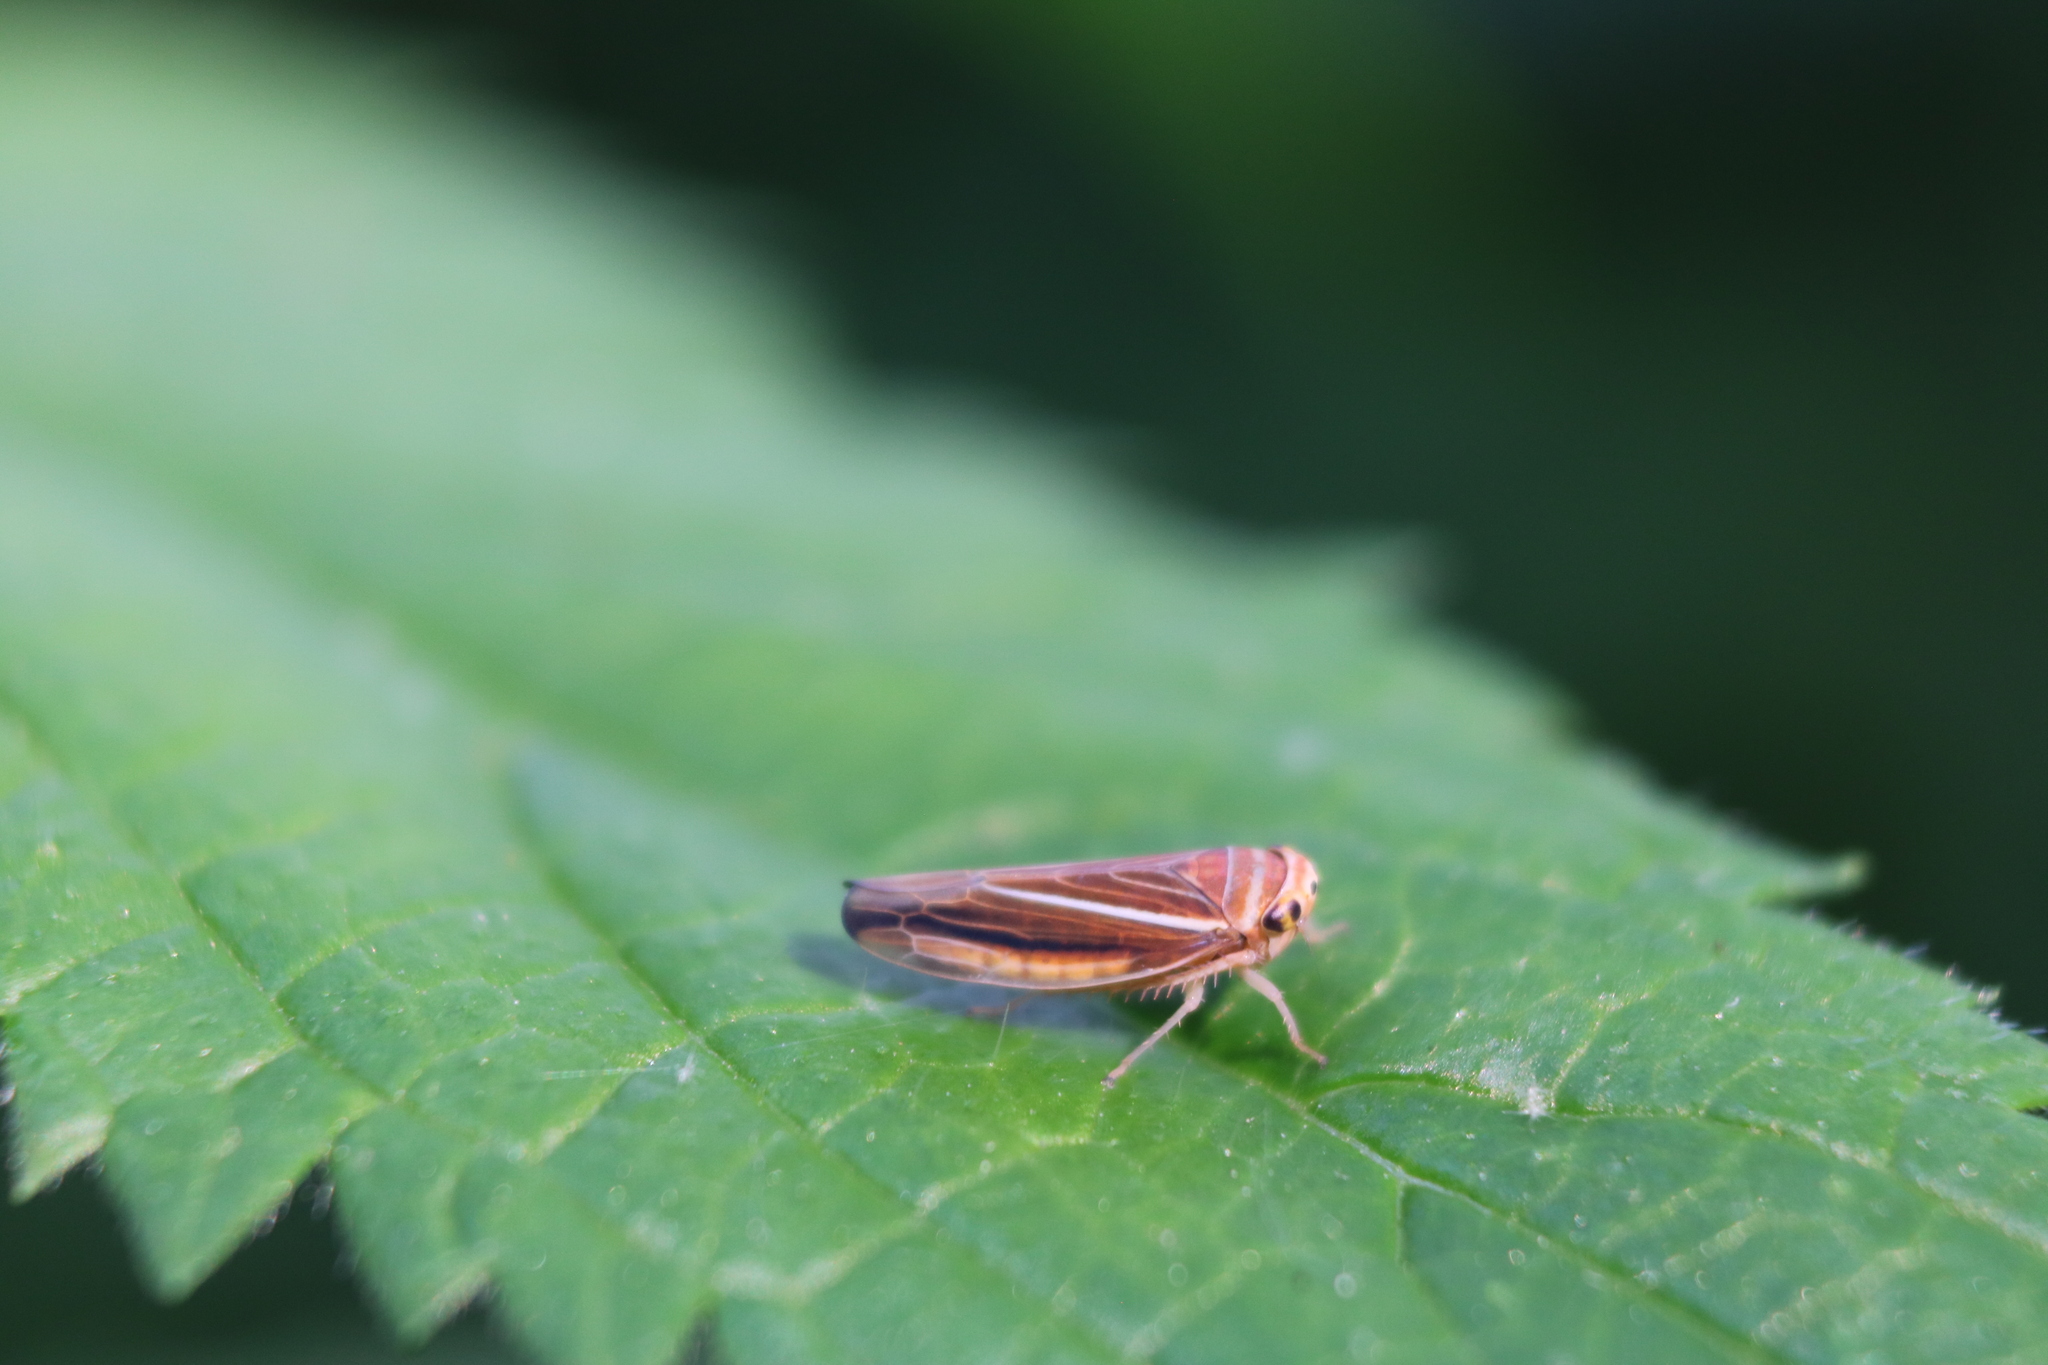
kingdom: Animalia
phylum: Arthropoda
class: Insecta
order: Hemiptera
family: Cicadellidae
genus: Idiodonus
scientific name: Idiodonus kennicotti
